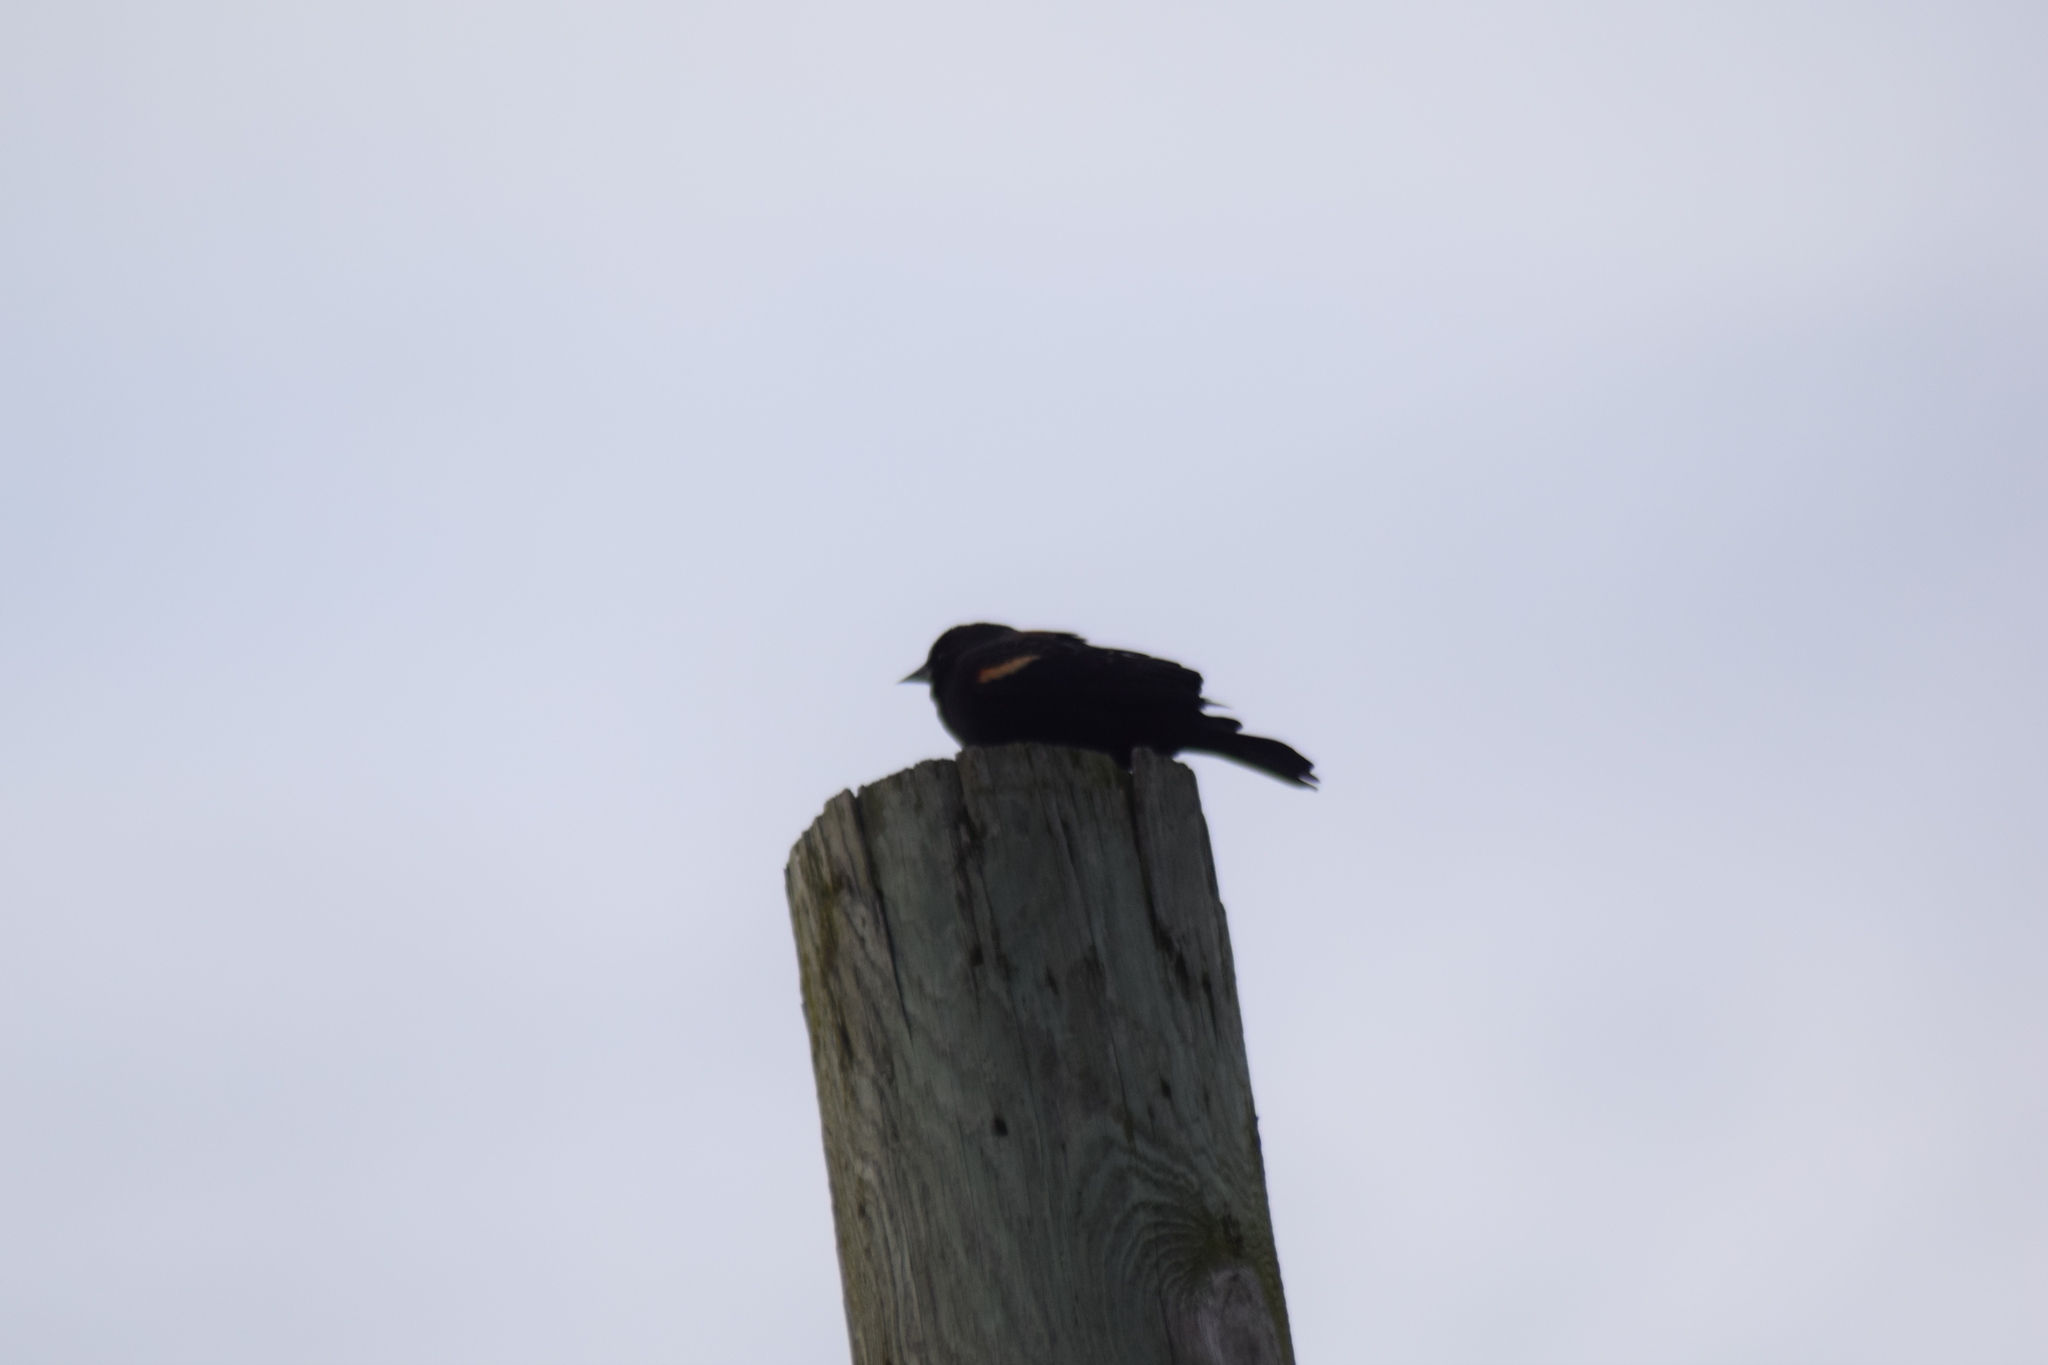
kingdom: Animalia
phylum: Chordata
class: Aves
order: Passeriformes
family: Icteridae
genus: Agelaius
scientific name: Agelaius phoeniceus
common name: Red-winged blackbird
